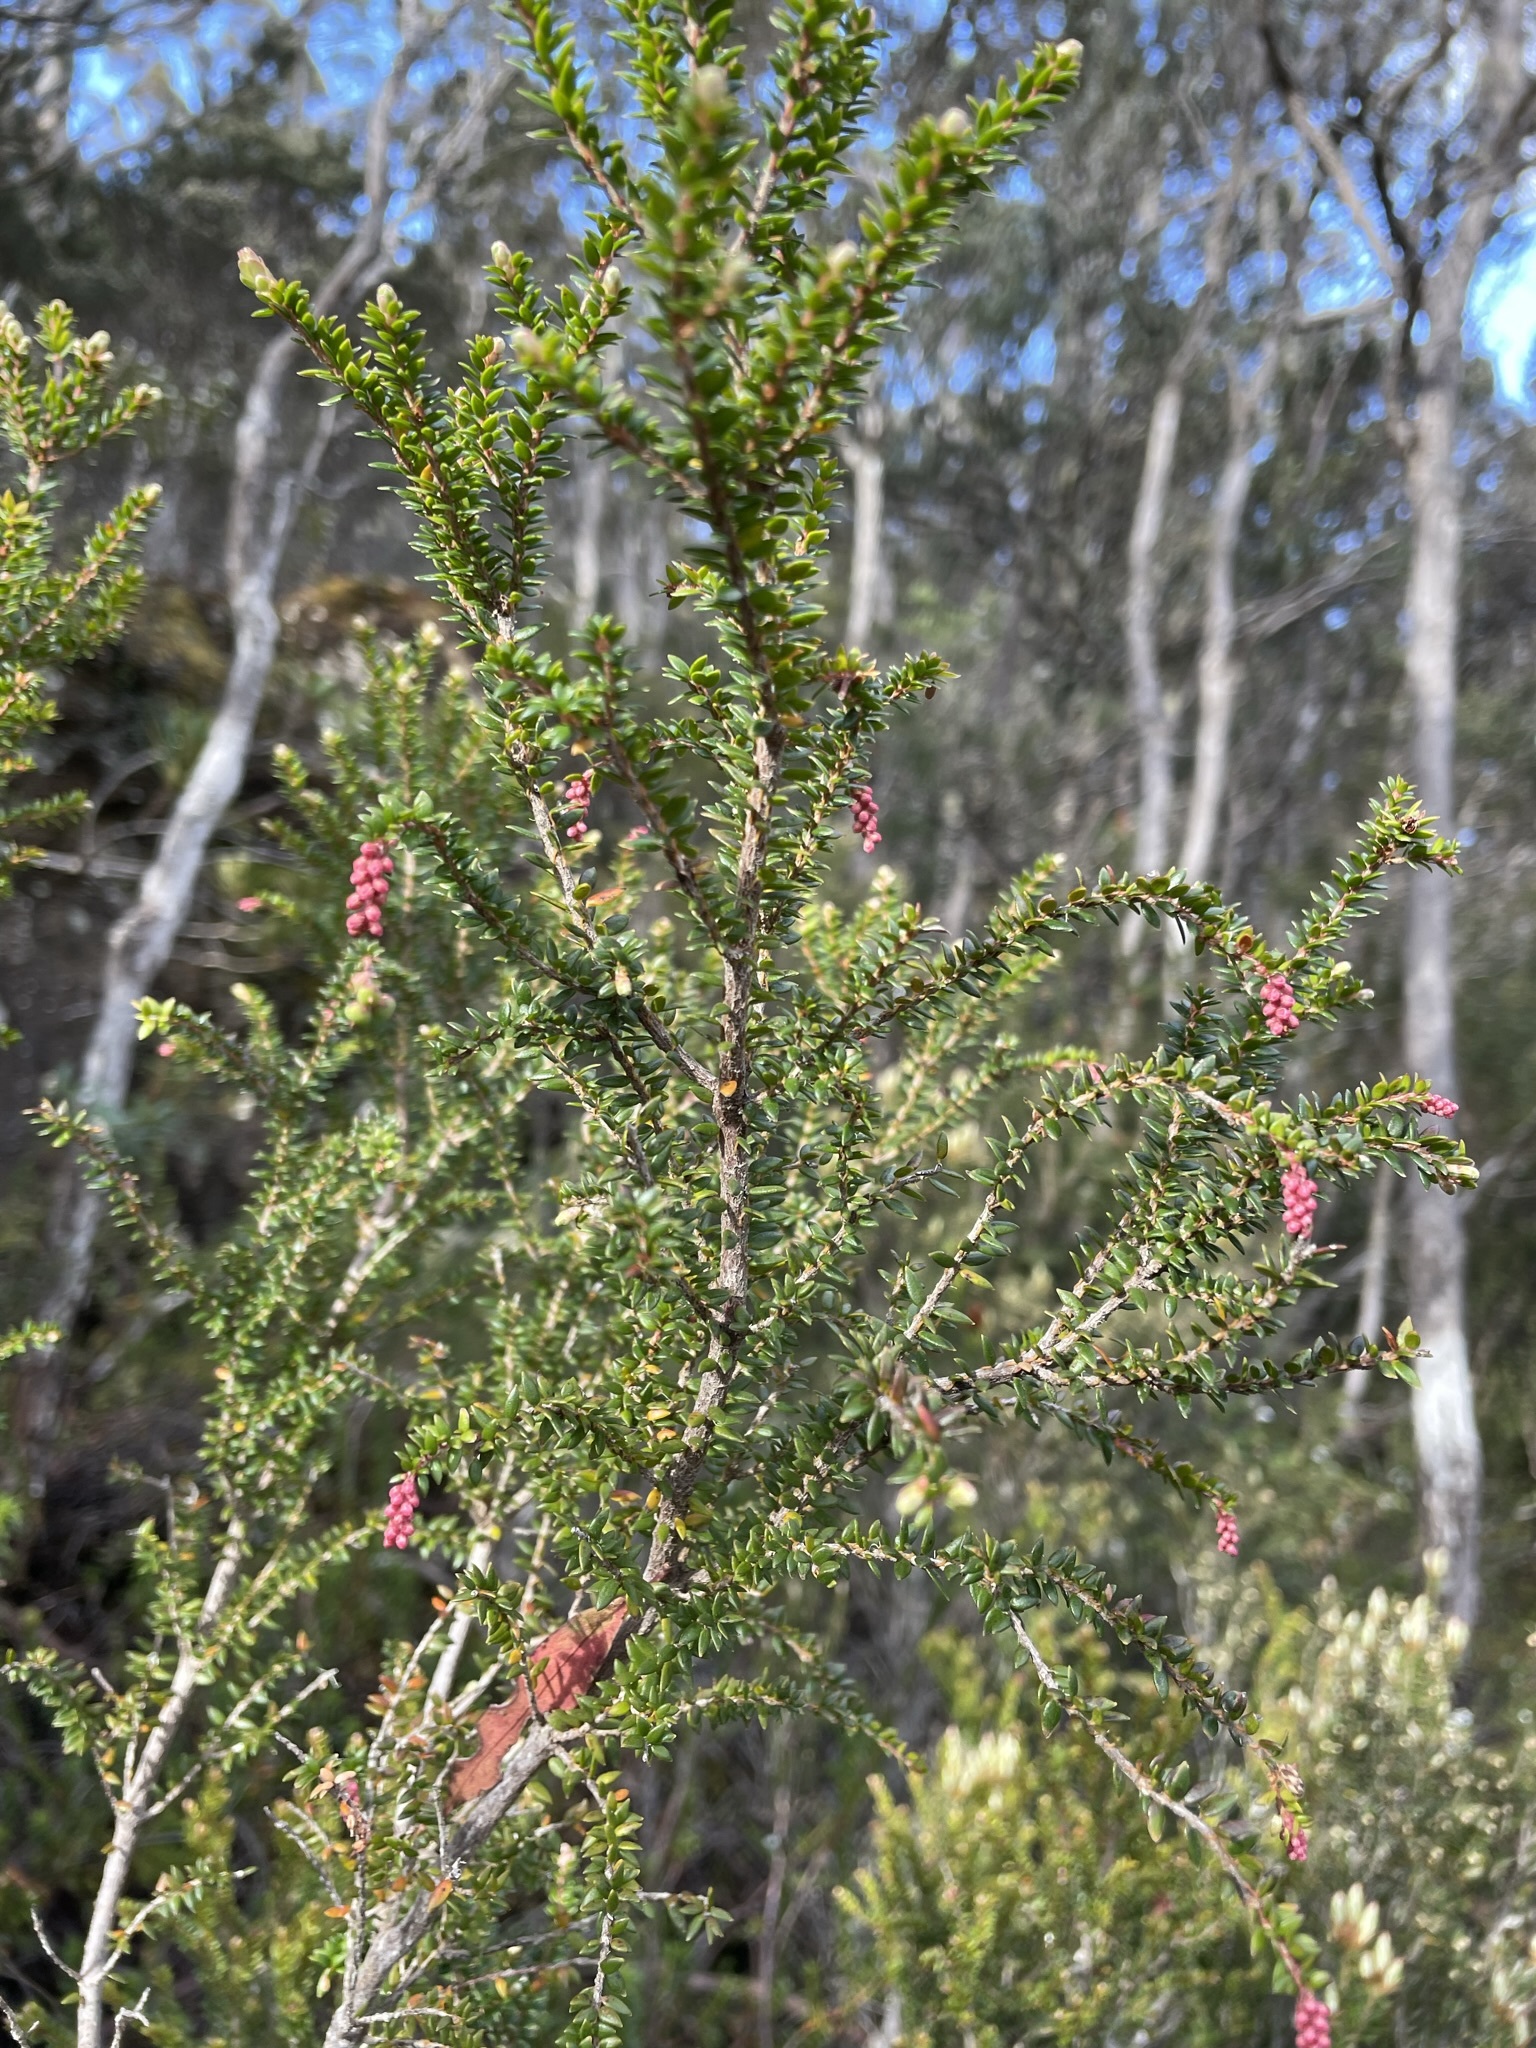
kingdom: Plantae
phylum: Tracheophyta
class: Magnoliopsida
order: Ericales
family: Ericaceae
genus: Trochocarpa
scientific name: Trochocarpa thymifolia
